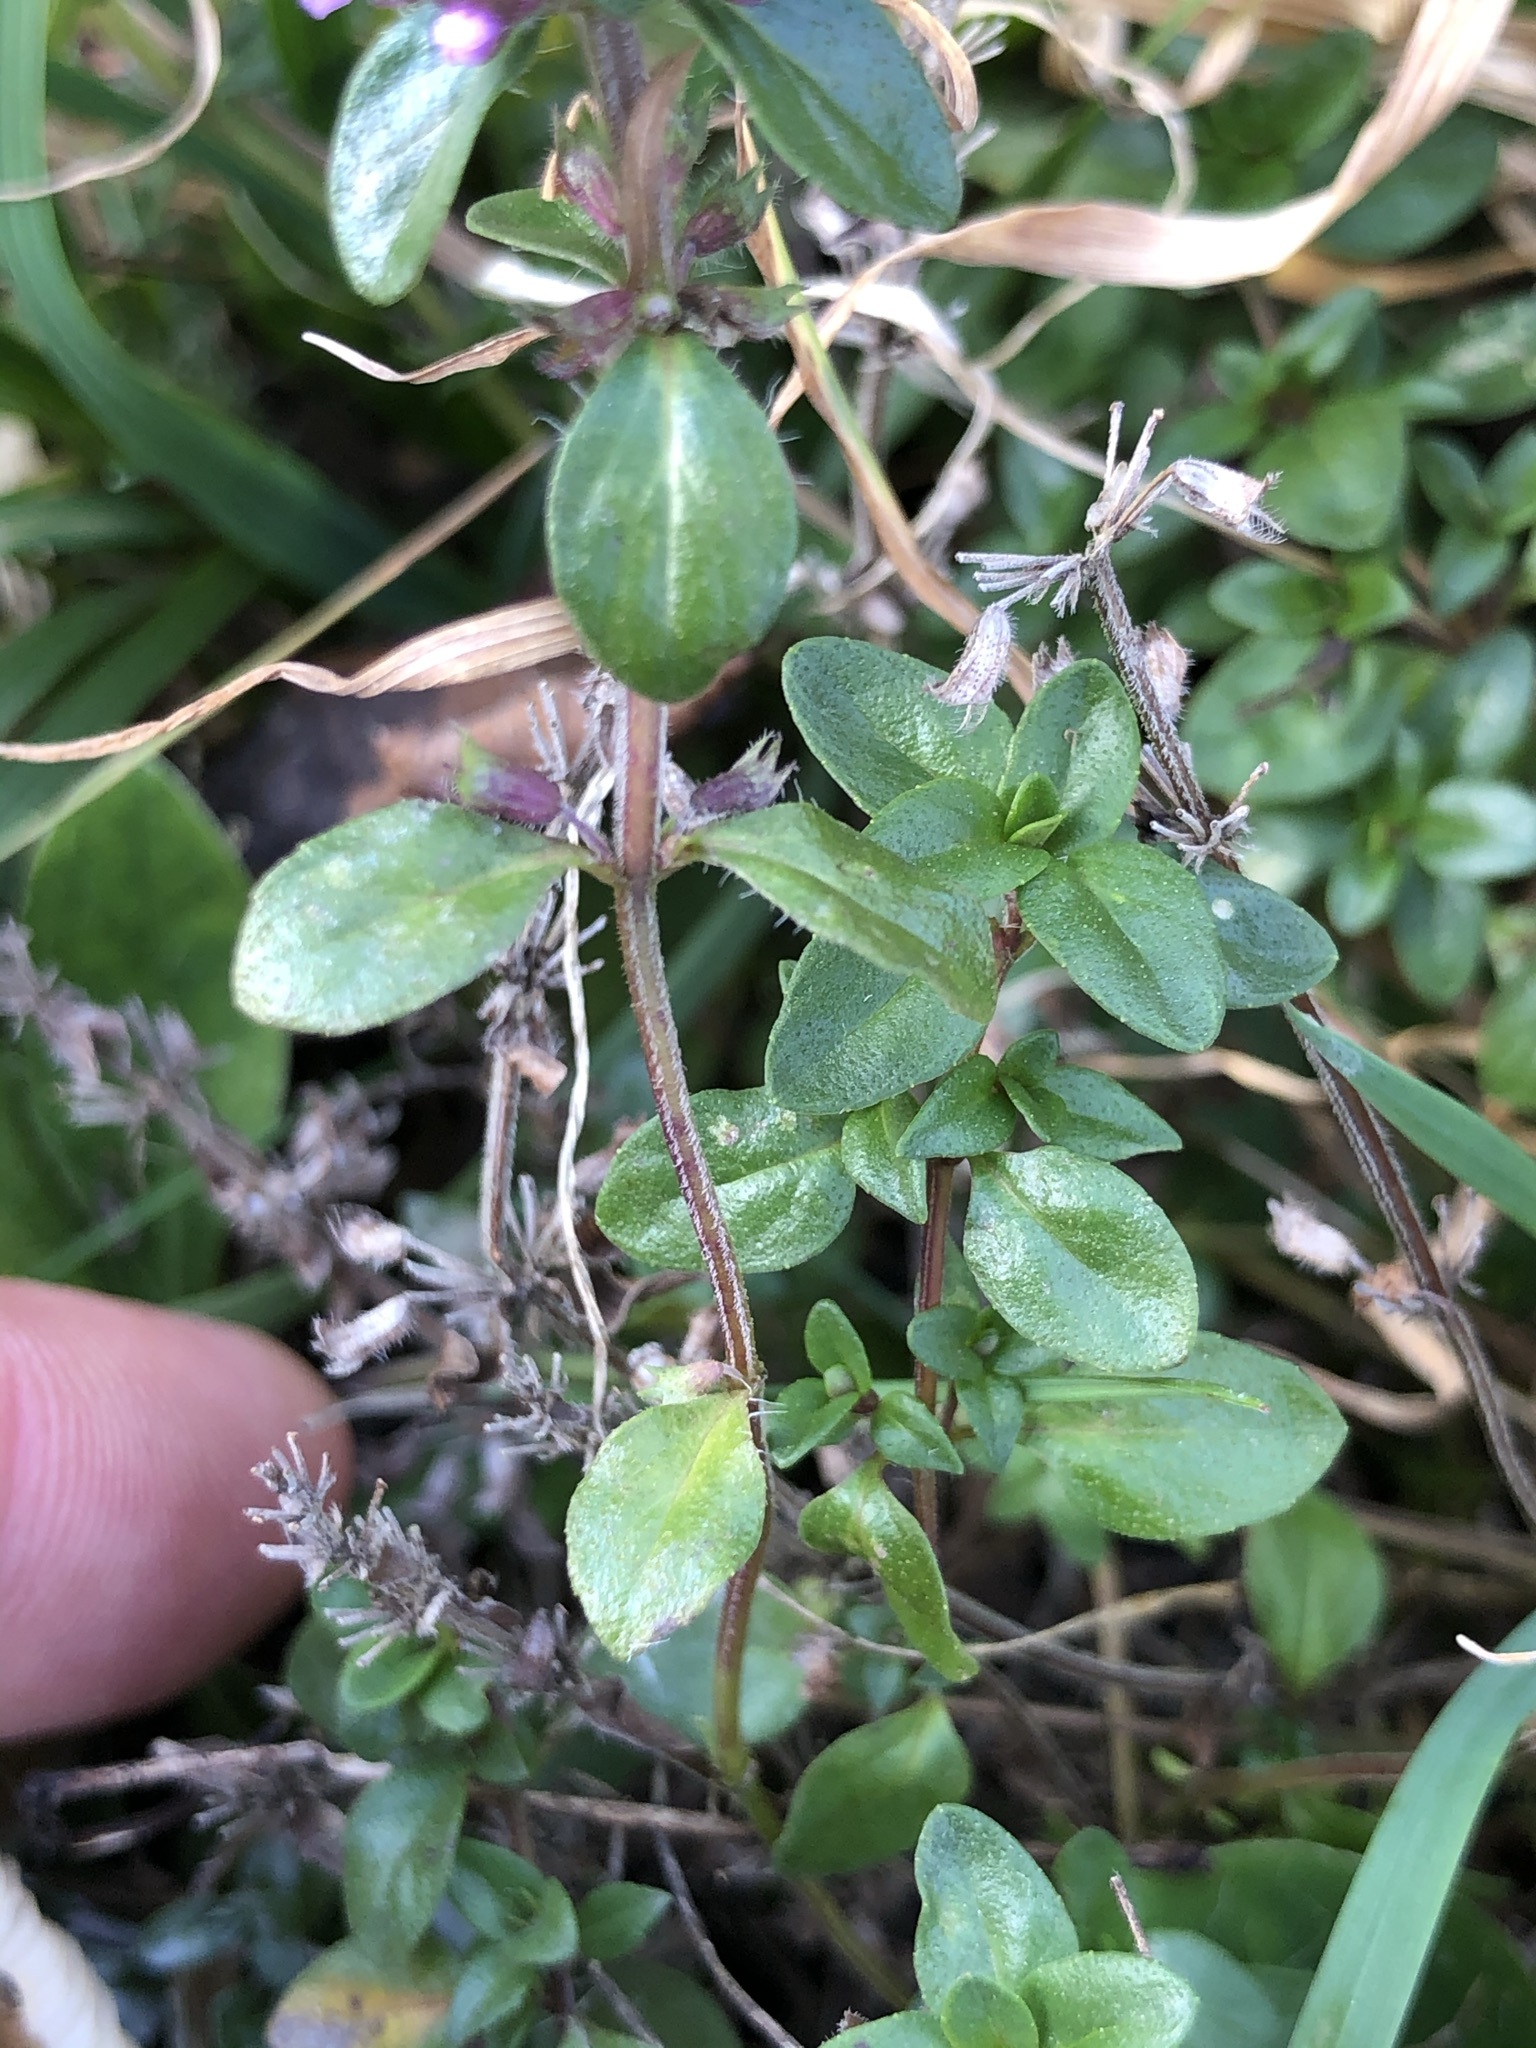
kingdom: Plantae
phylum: Tracheophyta
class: Magnoliopsida
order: Lamiales
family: Lamiaceae
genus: Thymus
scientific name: Thymus pulegioides
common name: Large thyme
